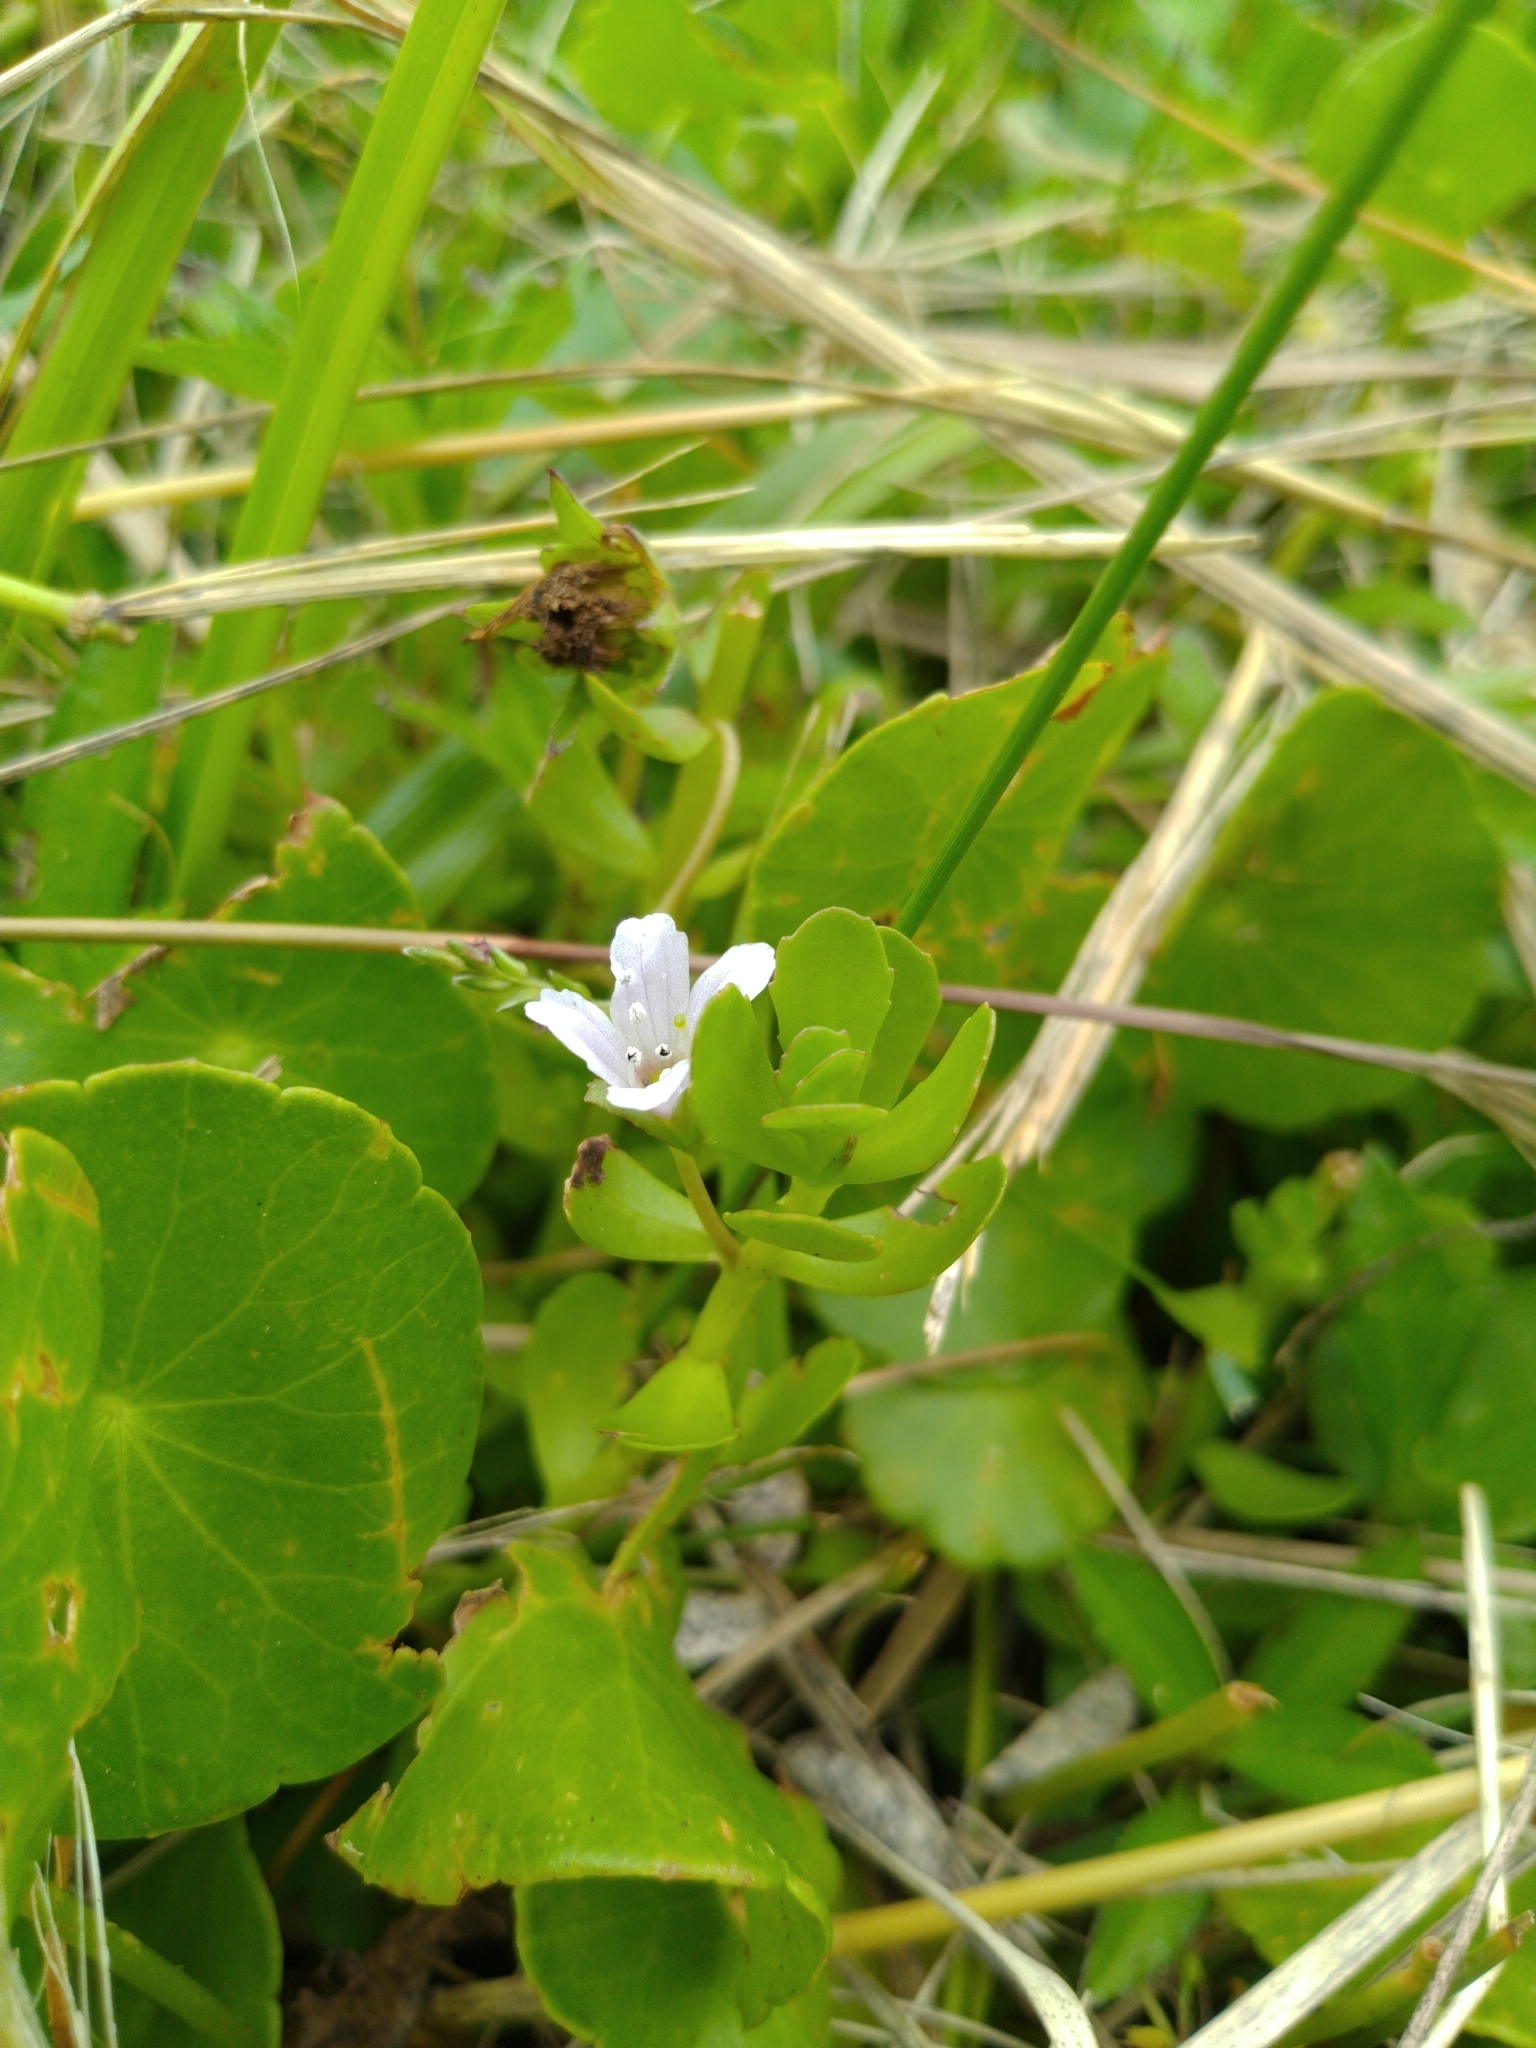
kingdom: Plantae
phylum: Tracheophyta
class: Magnoliopsida
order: Lamiales
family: Plantaginaceae
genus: Bacopa
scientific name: Bacopa monnieri
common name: Indian-pennywort
